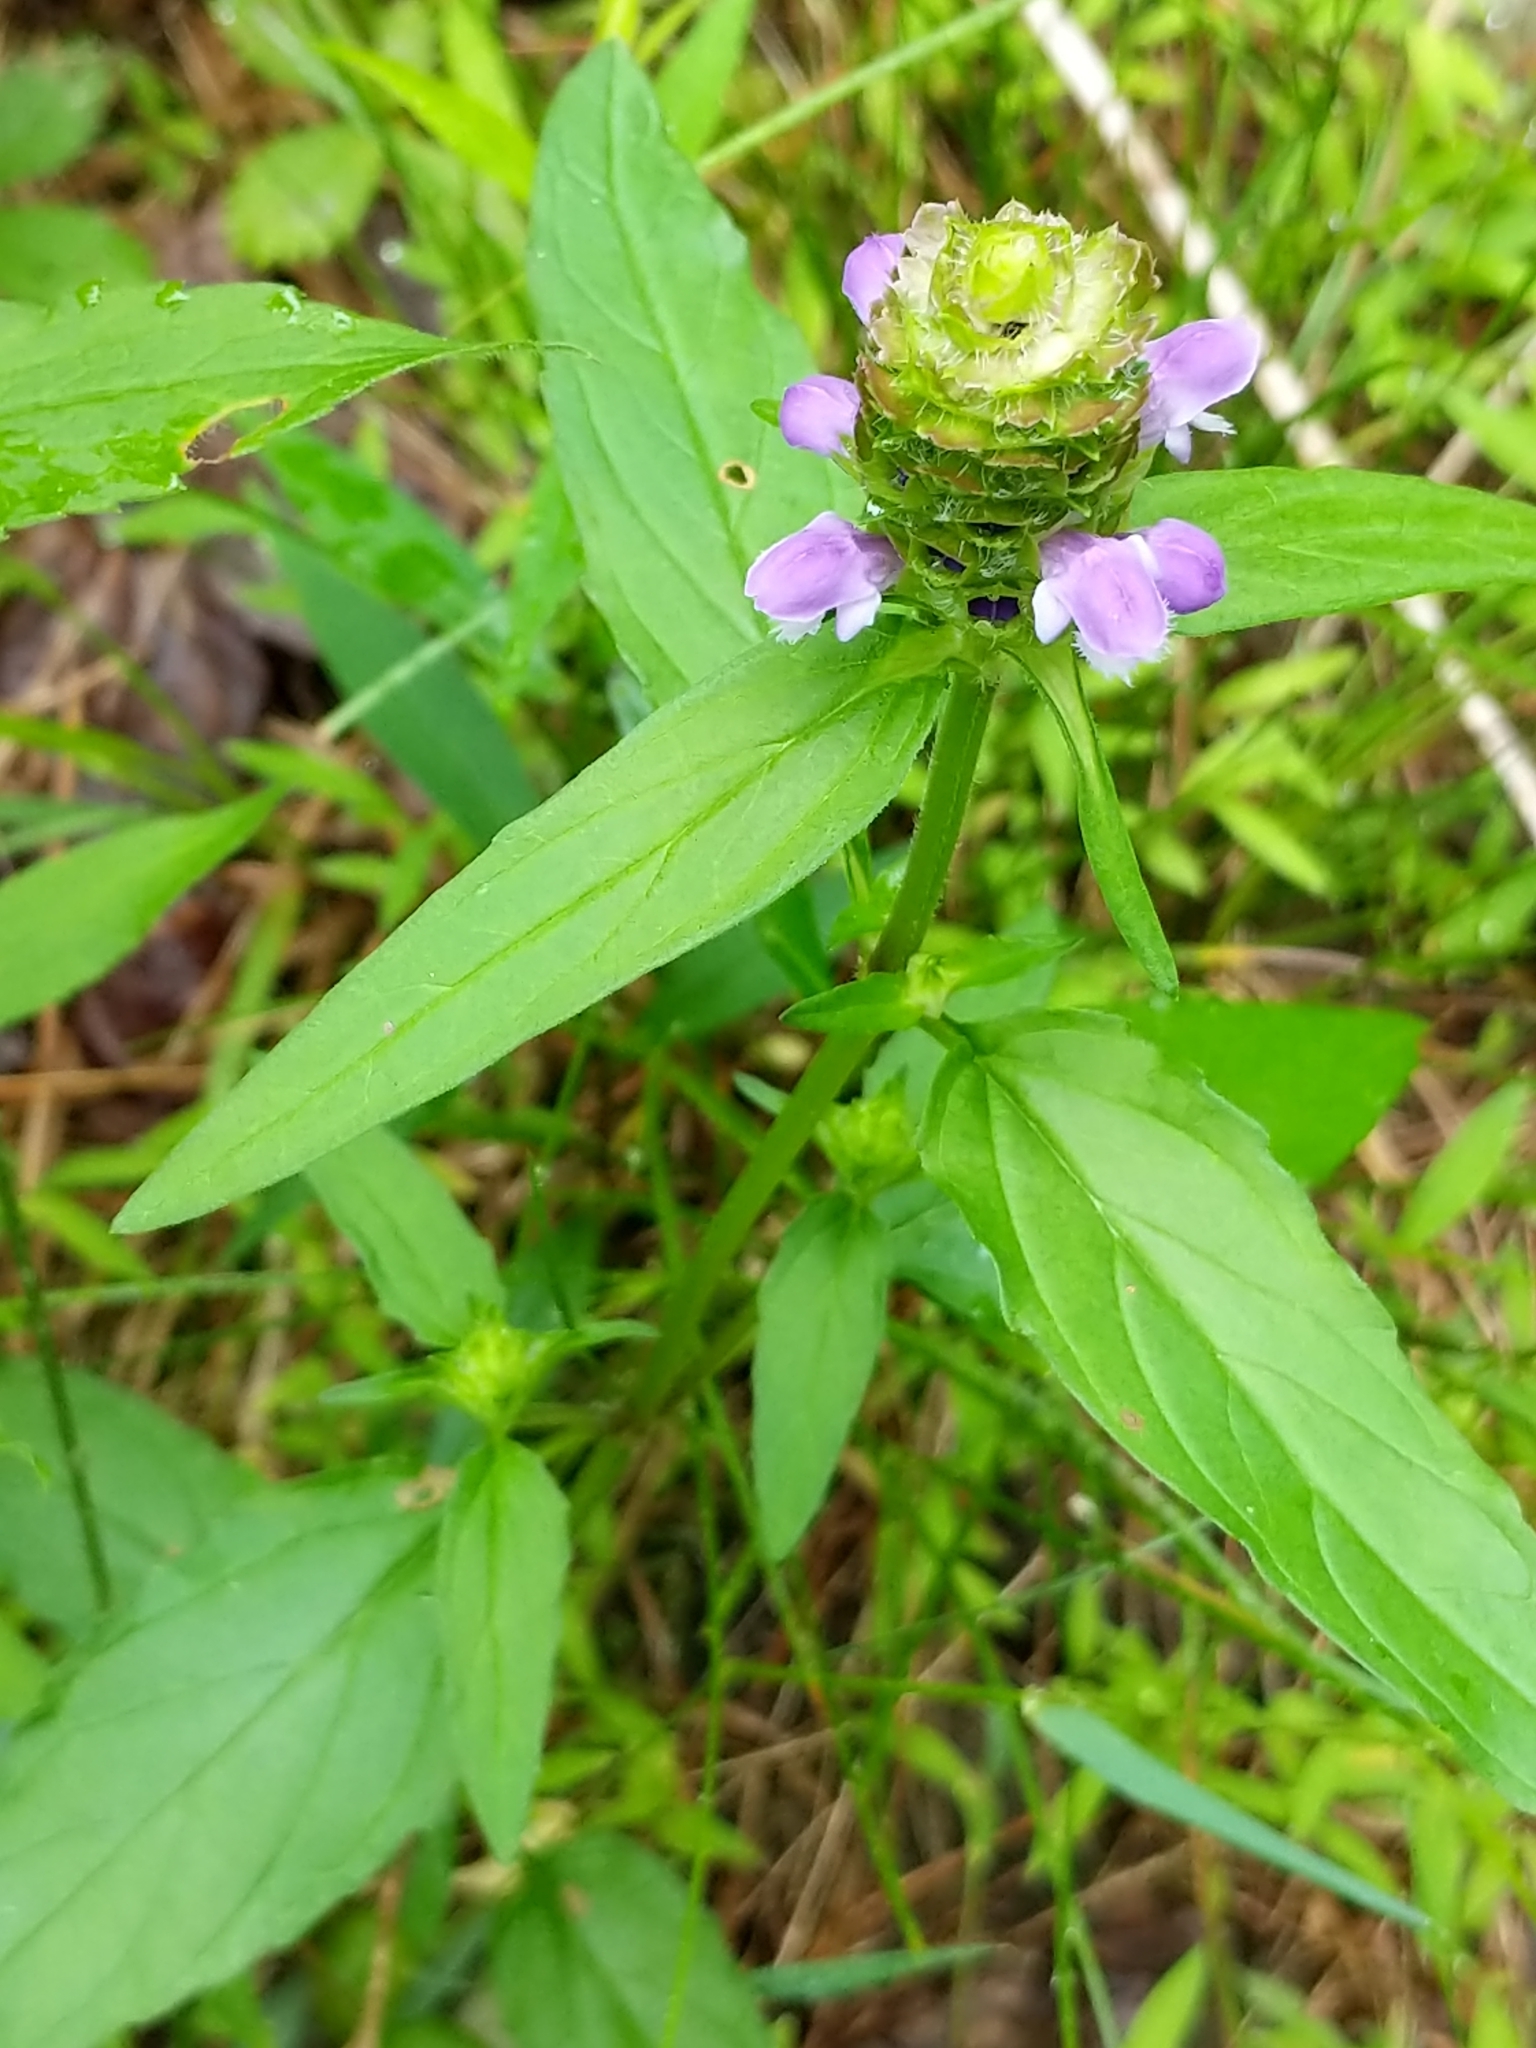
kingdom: Plantae
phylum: Tracheophyta
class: Magnoliopsida
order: Lamiales
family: Lamiaceae
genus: Prunella
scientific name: Prunella vulgaris
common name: Heal-all
